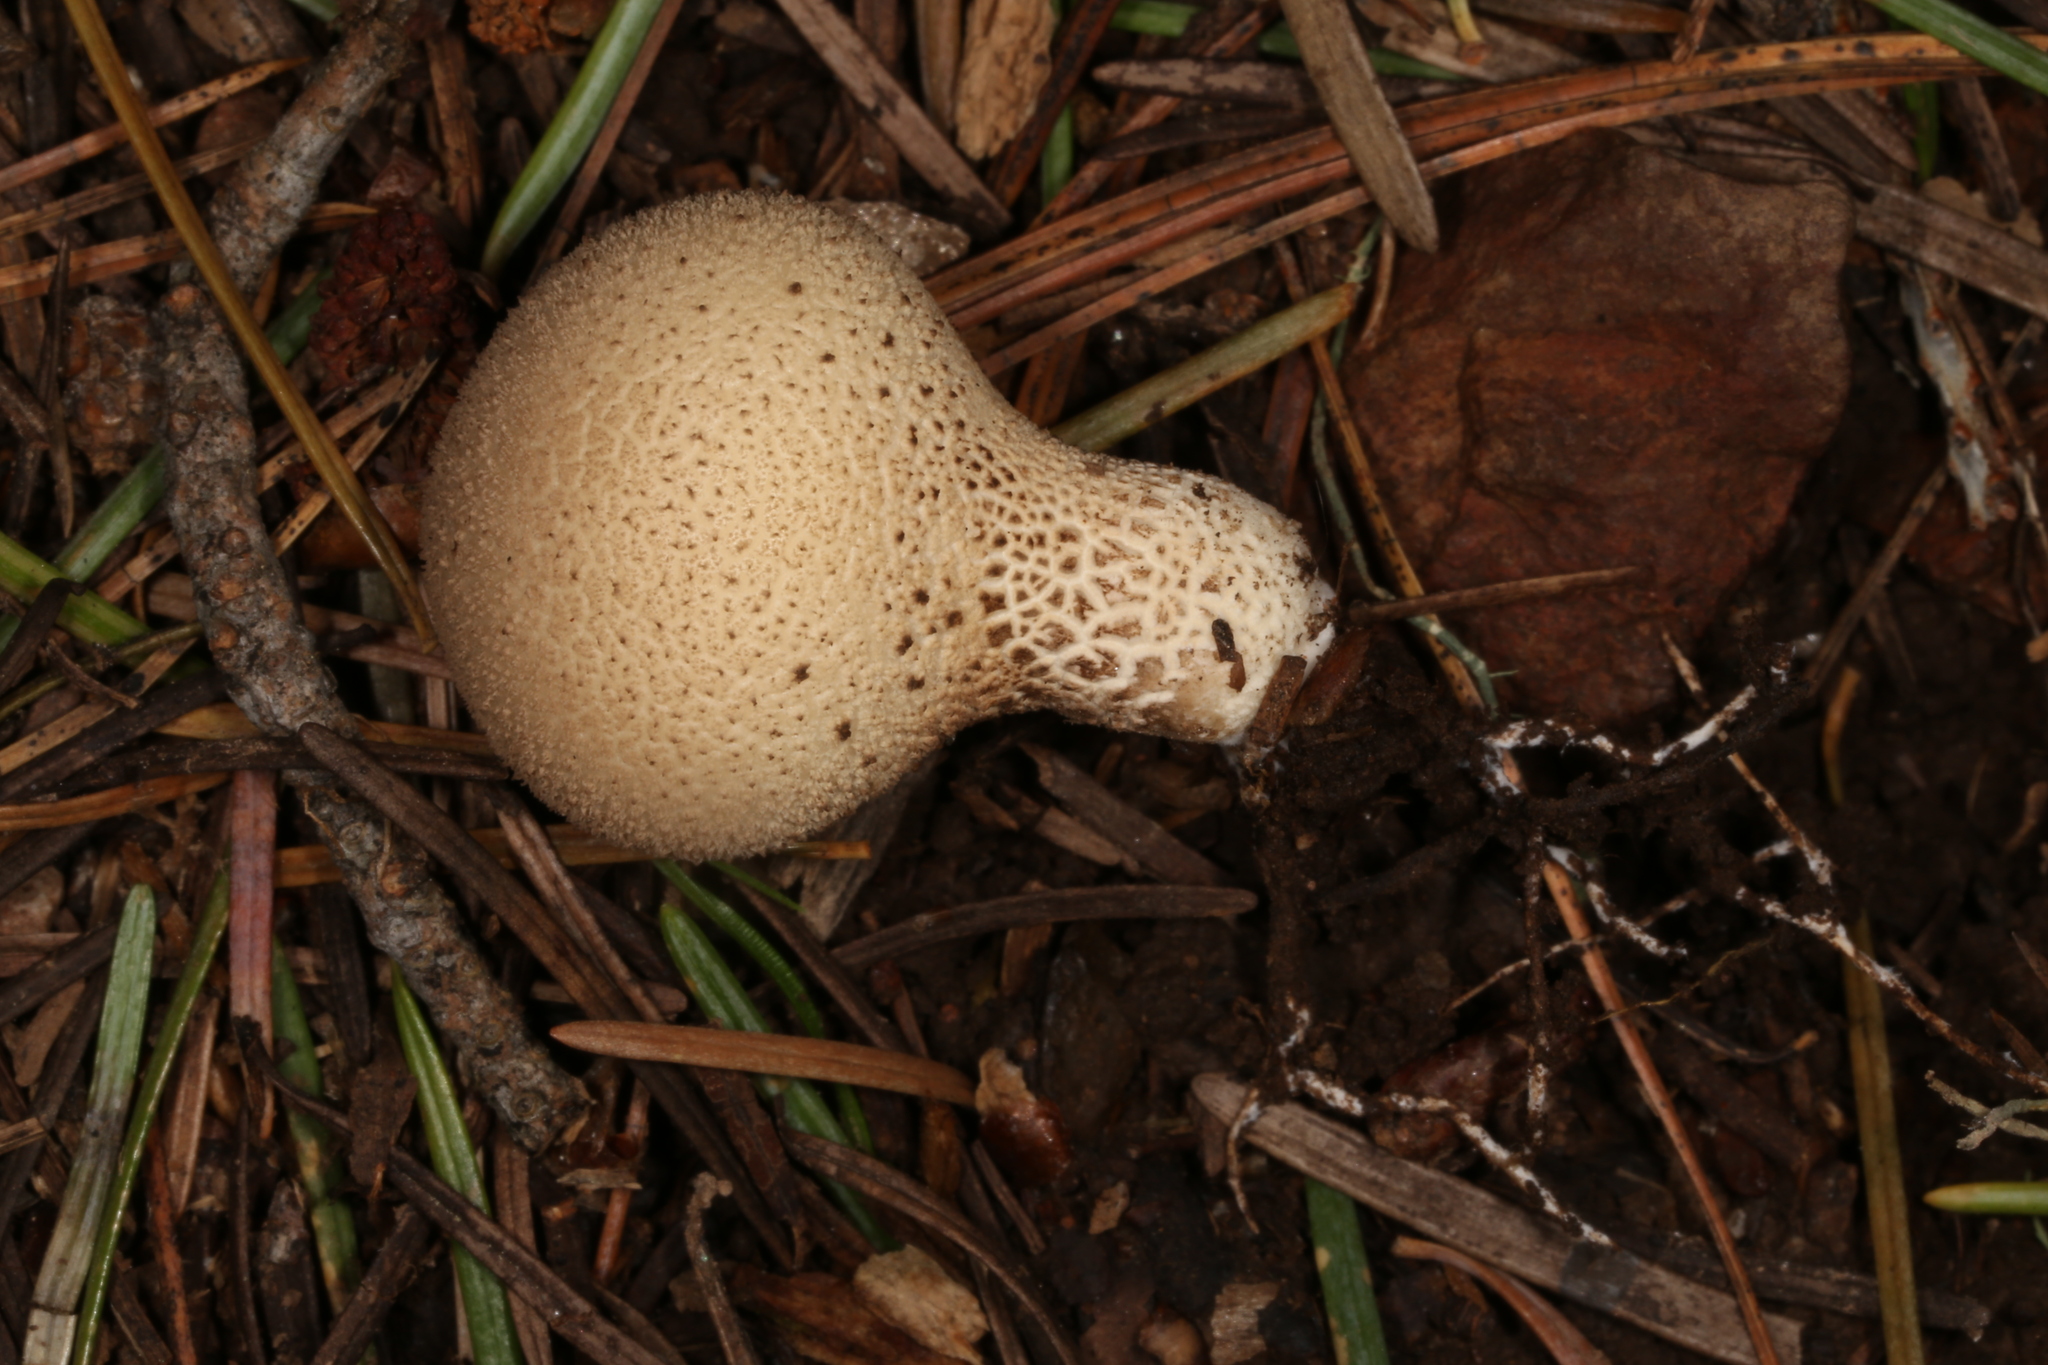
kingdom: Fungi
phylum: Basidiomycota
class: Agaricomycetes
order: Agaricales
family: Lycoperdaceae
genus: Apioperdon
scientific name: Apioperdon pyriforme
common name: Pear-shaped puffball
